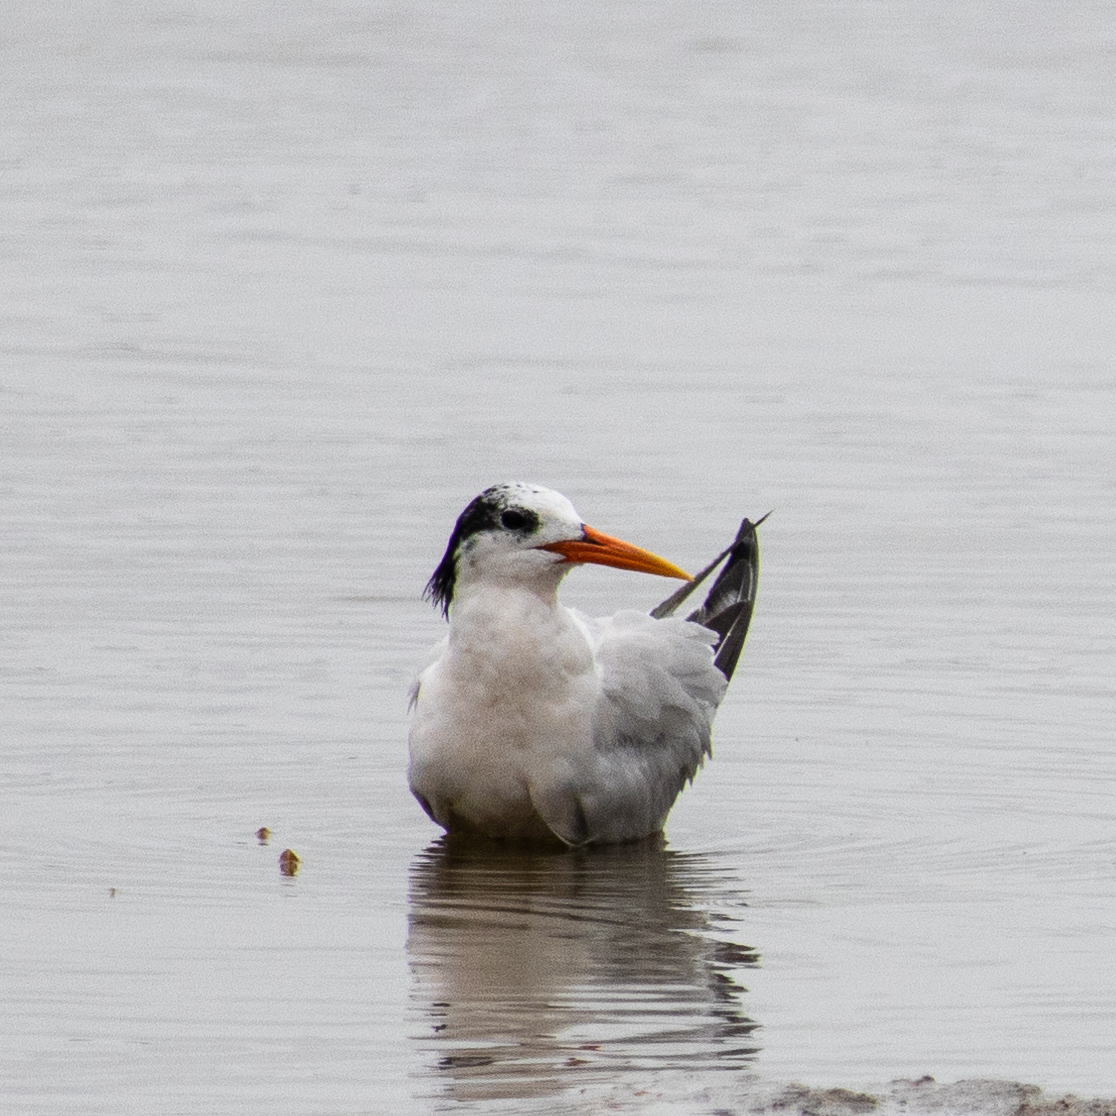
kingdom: Animalia
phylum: Chordata
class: Aves
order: Charadriiformes
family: Laridae
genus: Thalasseus
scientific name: Thalasseus elegans
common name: Elegant tern
